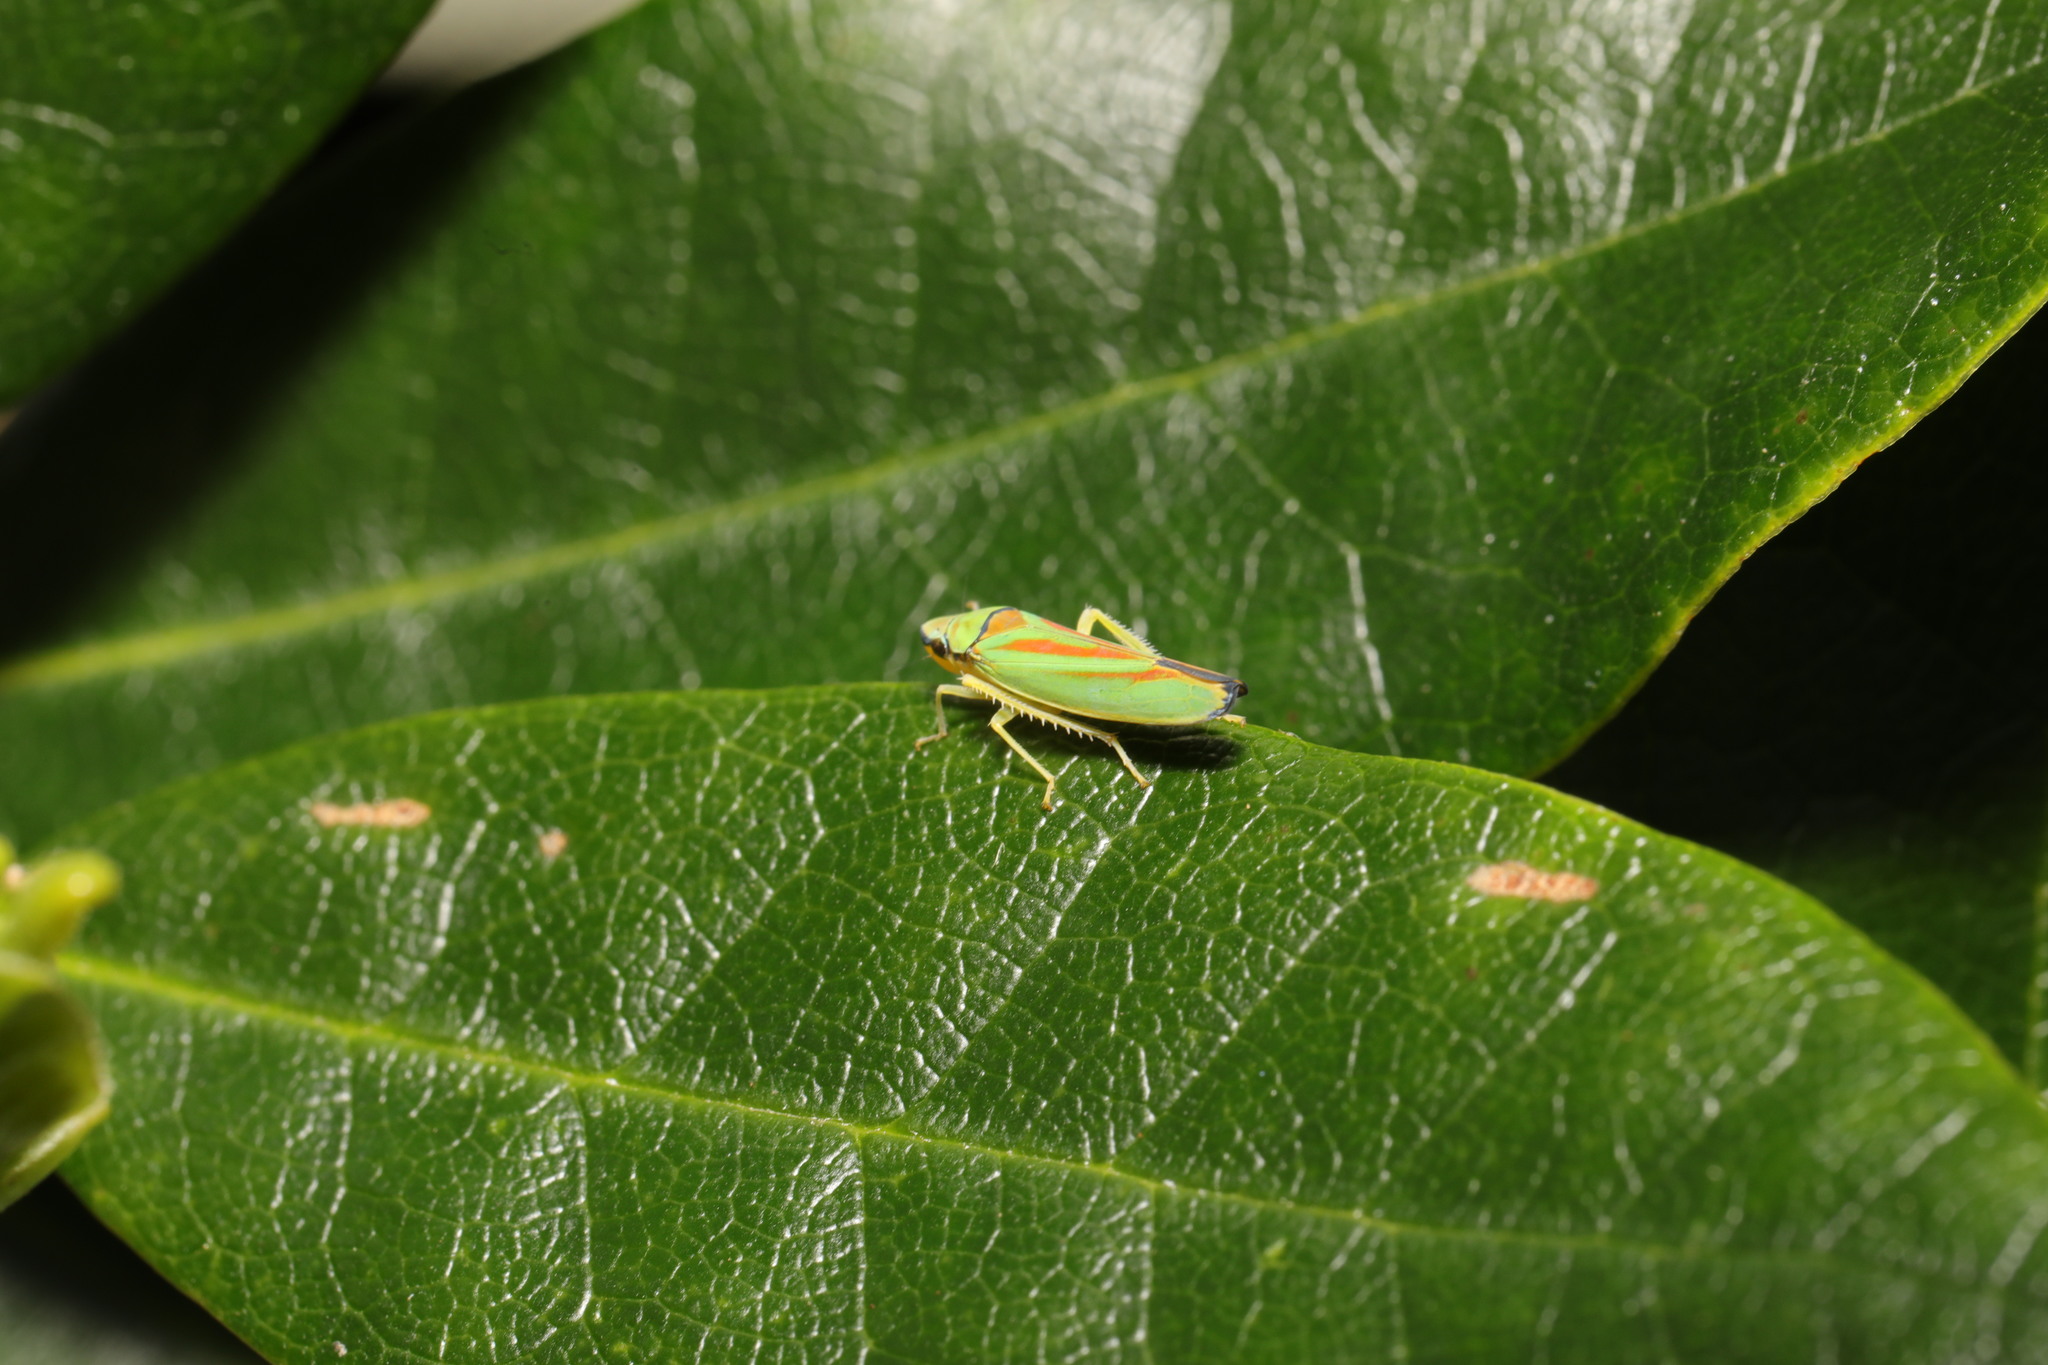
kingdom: Animalia
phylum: Arthropoda
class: Insecta
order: Hemiptera
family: Cicadellidae
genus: Graphocephala
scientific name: Graphocephala fennahi
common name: Rhododendron leafhopper
